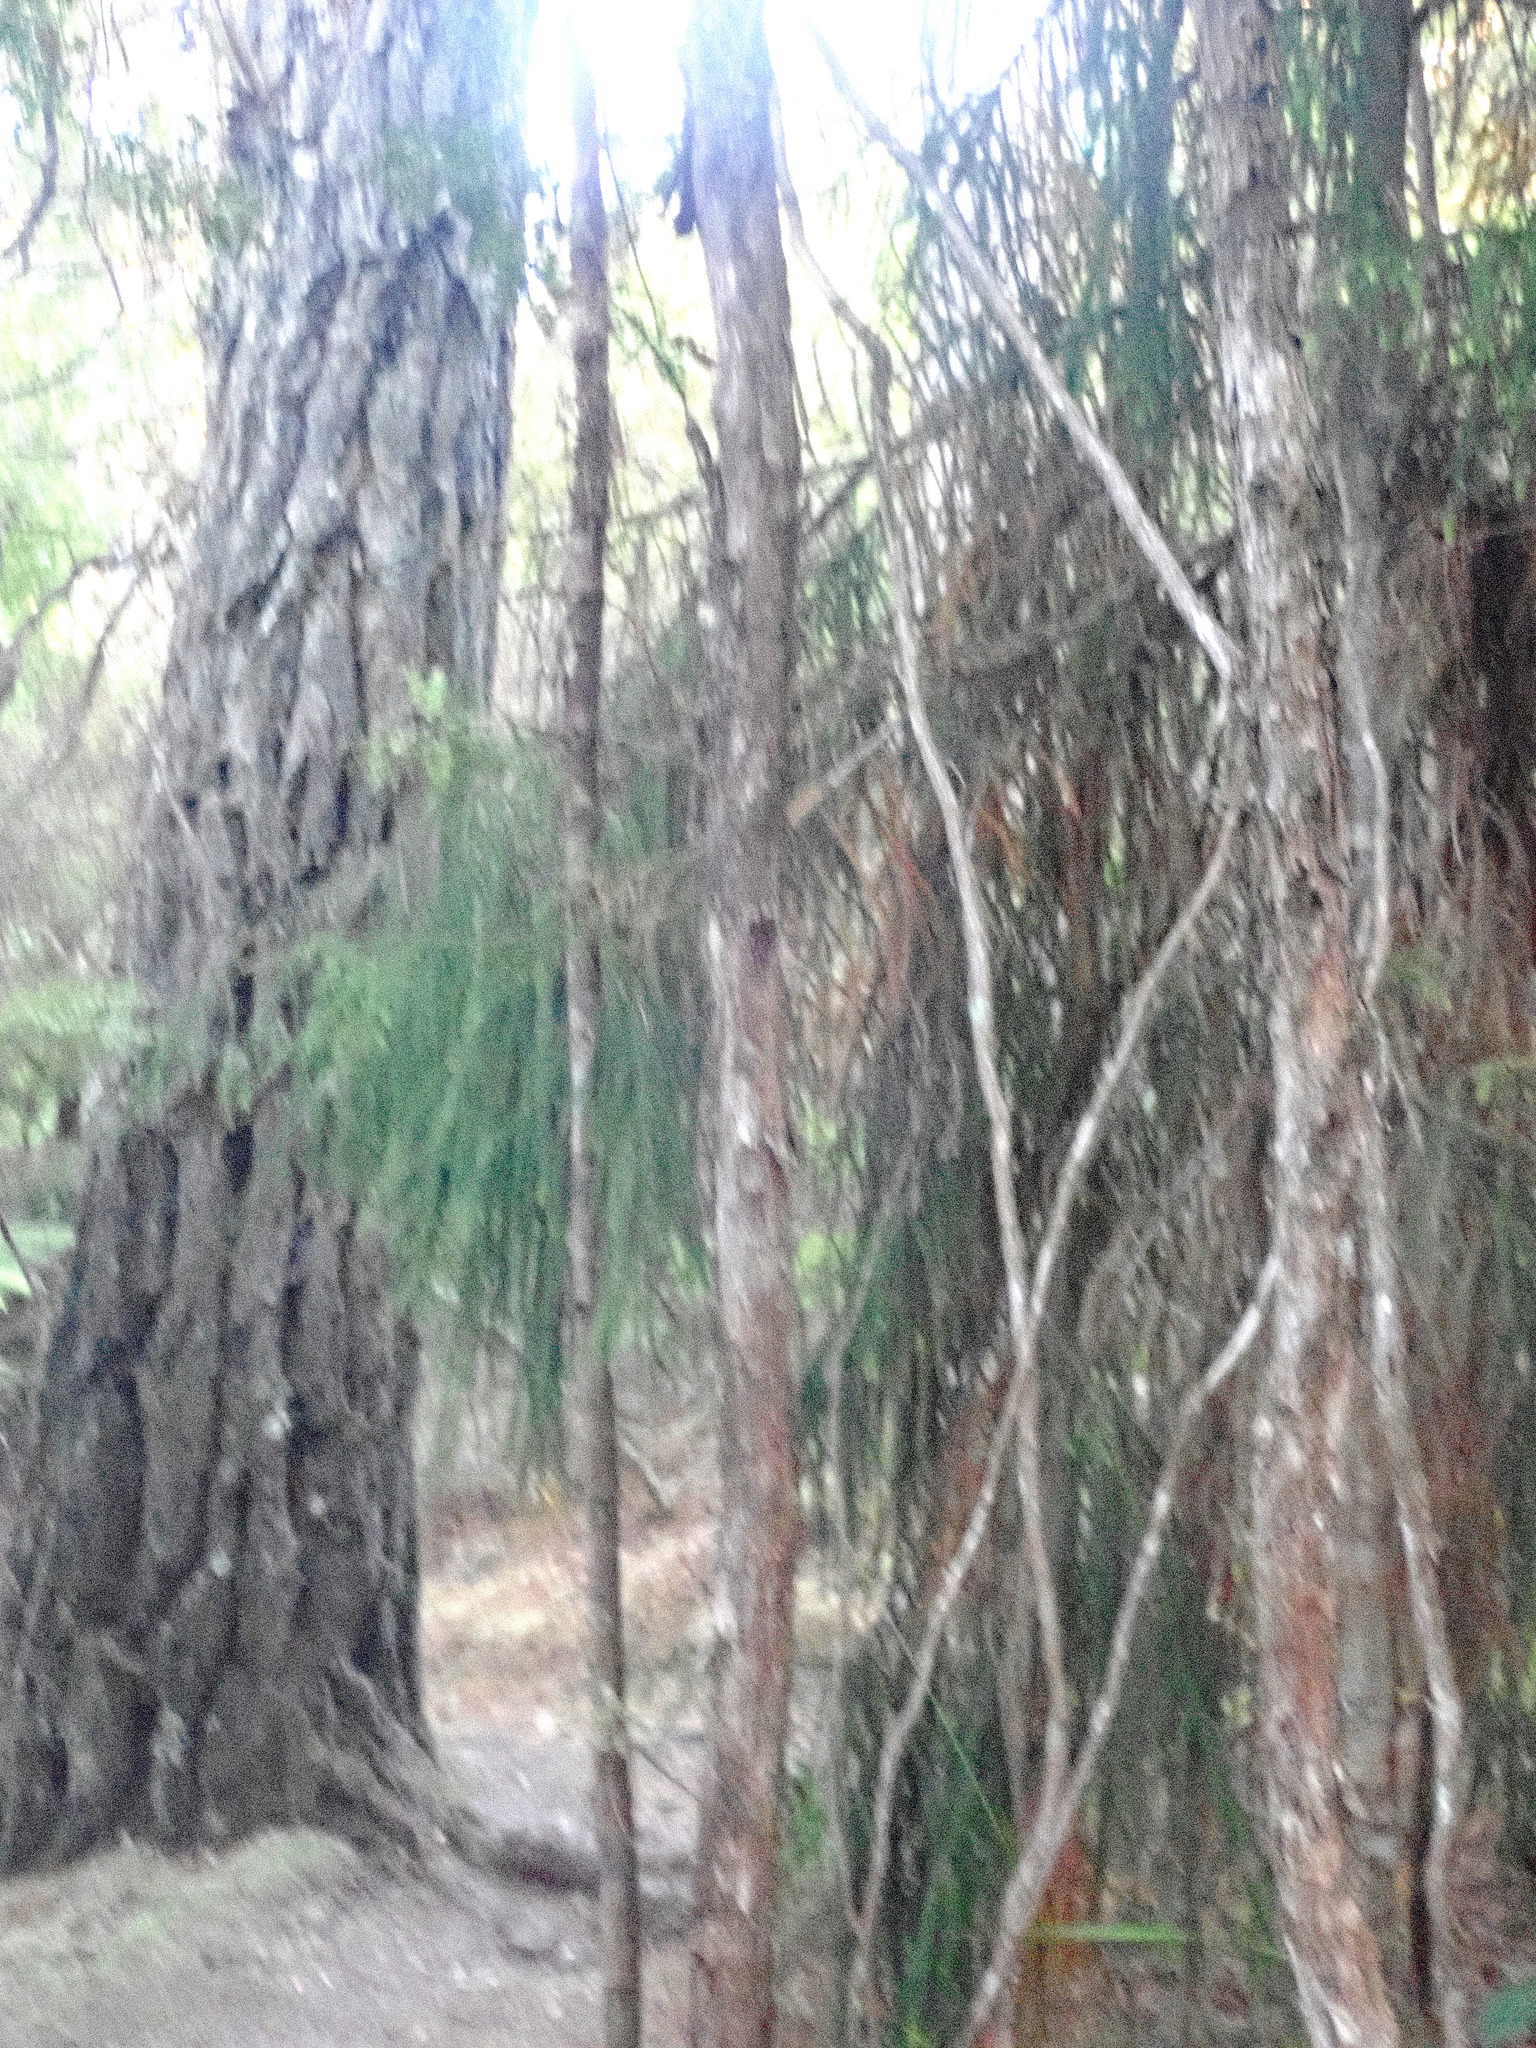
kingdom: Plantae
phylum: Tracheophyta
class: Pinopsida
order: Pinales
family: Podocarpaceae
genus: Dacrydium
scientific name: Dacrydium cupressinum
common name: Red pine
